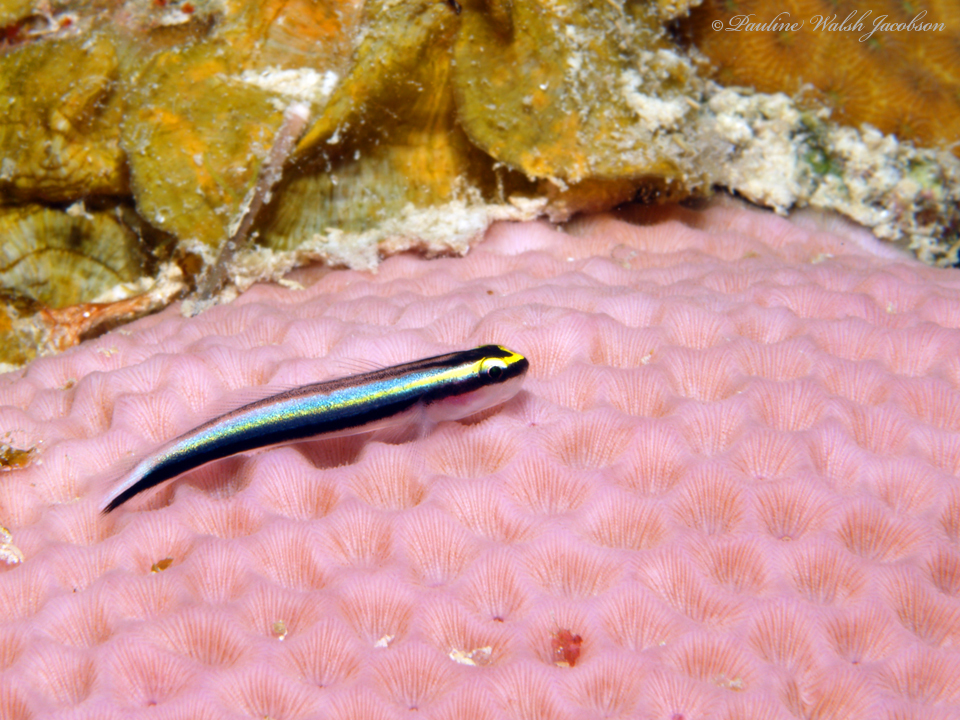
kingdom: Animalia
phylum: Chordata
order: Perciformes
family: Gobiidae
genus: Elacatinus
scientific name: Elacatinus evelynae
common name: Sharknose goby
